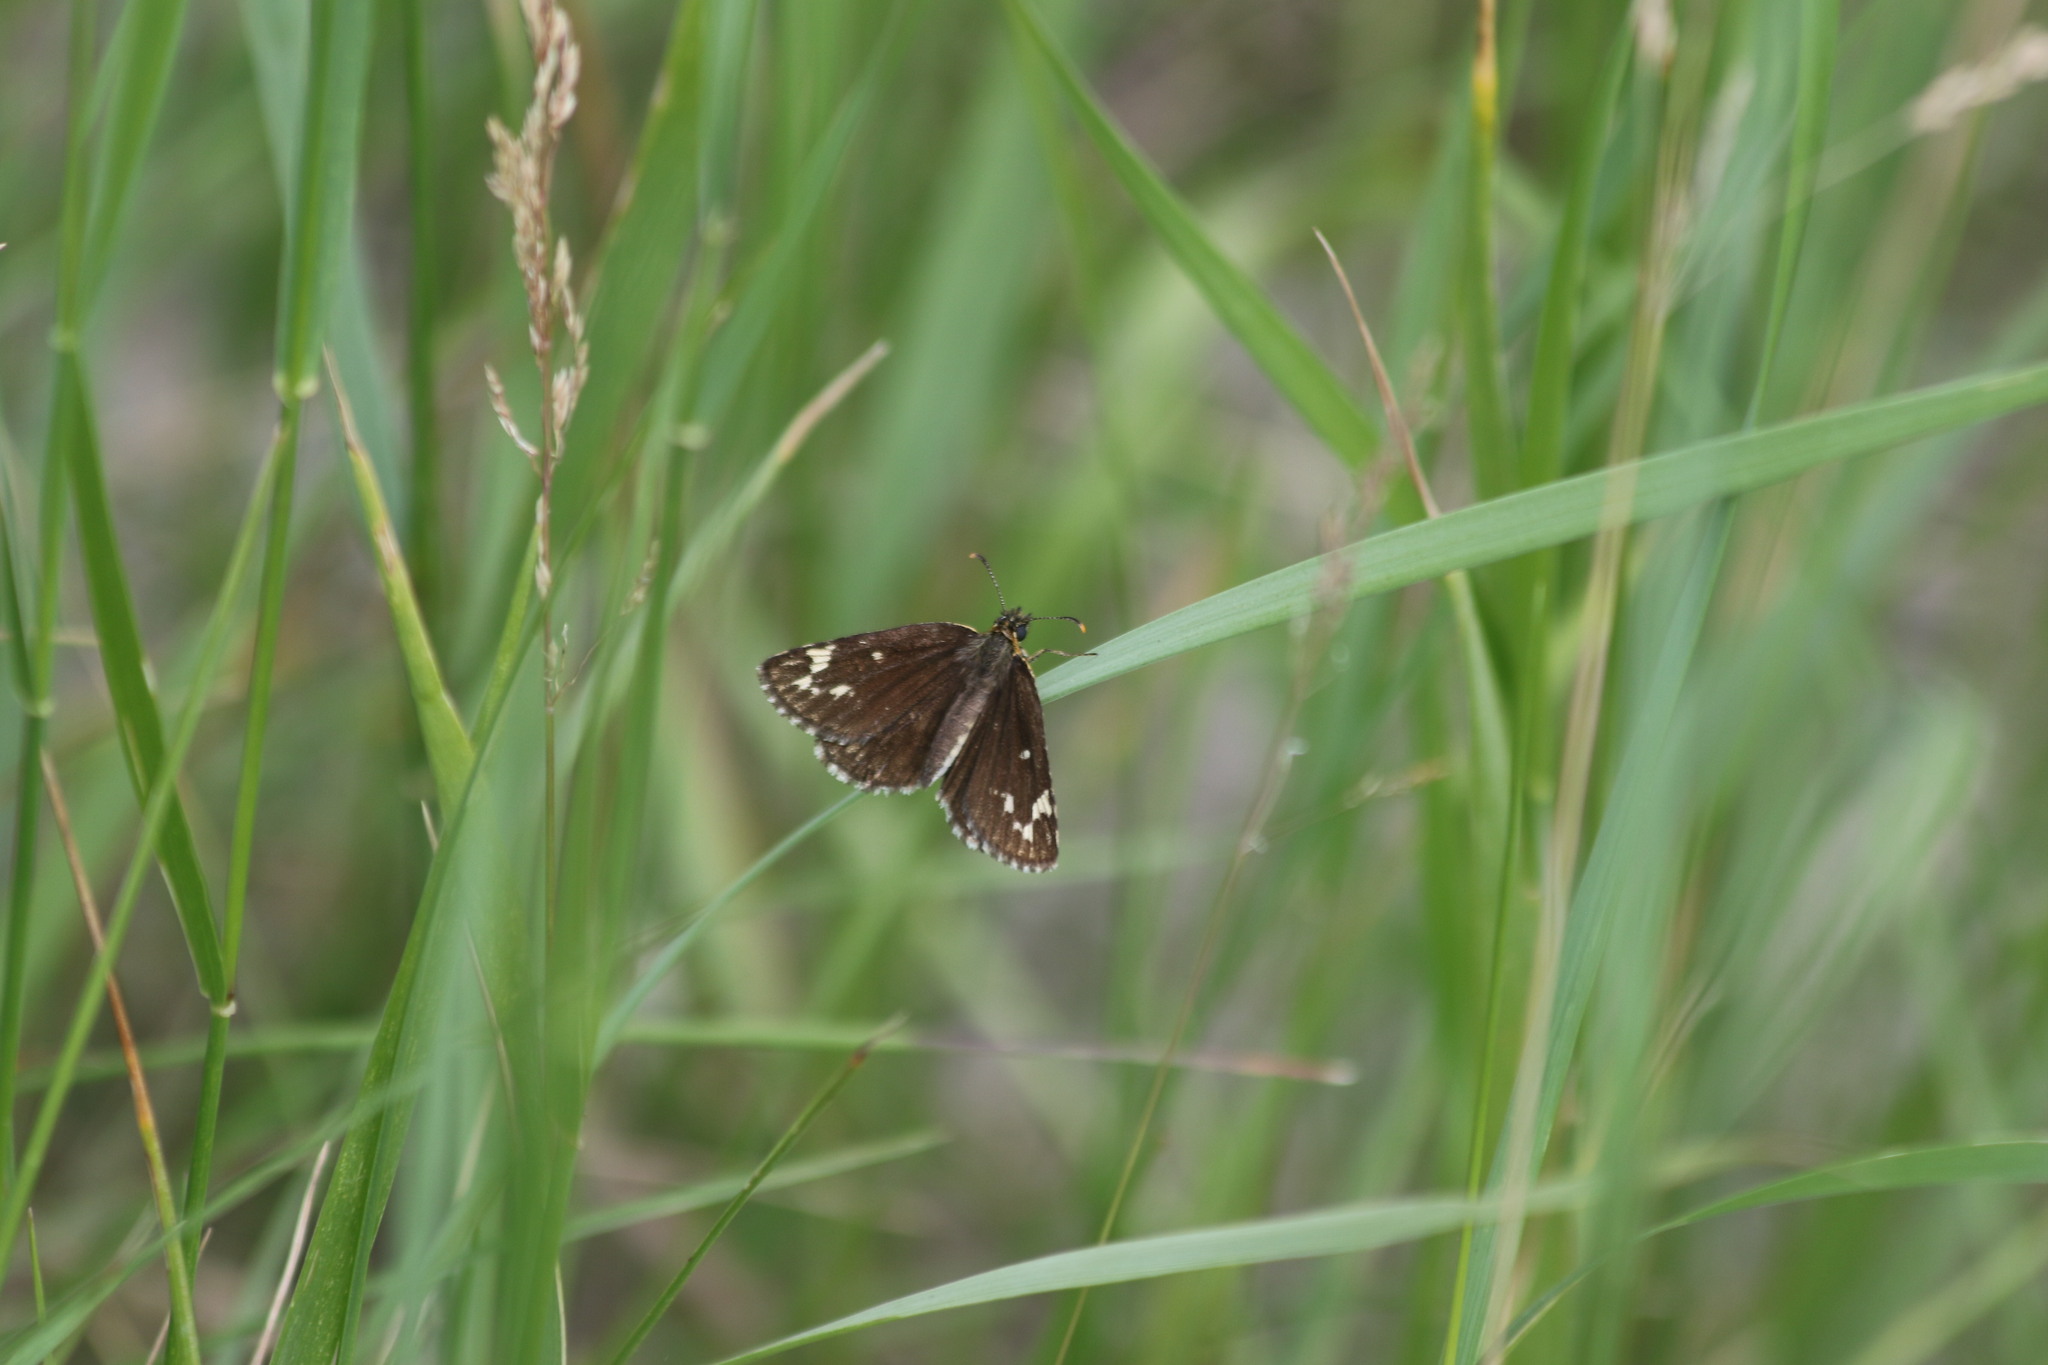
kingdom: Animalia
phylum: Arthropoda
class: Insecta
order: Lepidoptera
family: Hesperiidae
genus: Heteropterus
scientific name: Heteropterus morpheus
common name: Large chequered skipper
